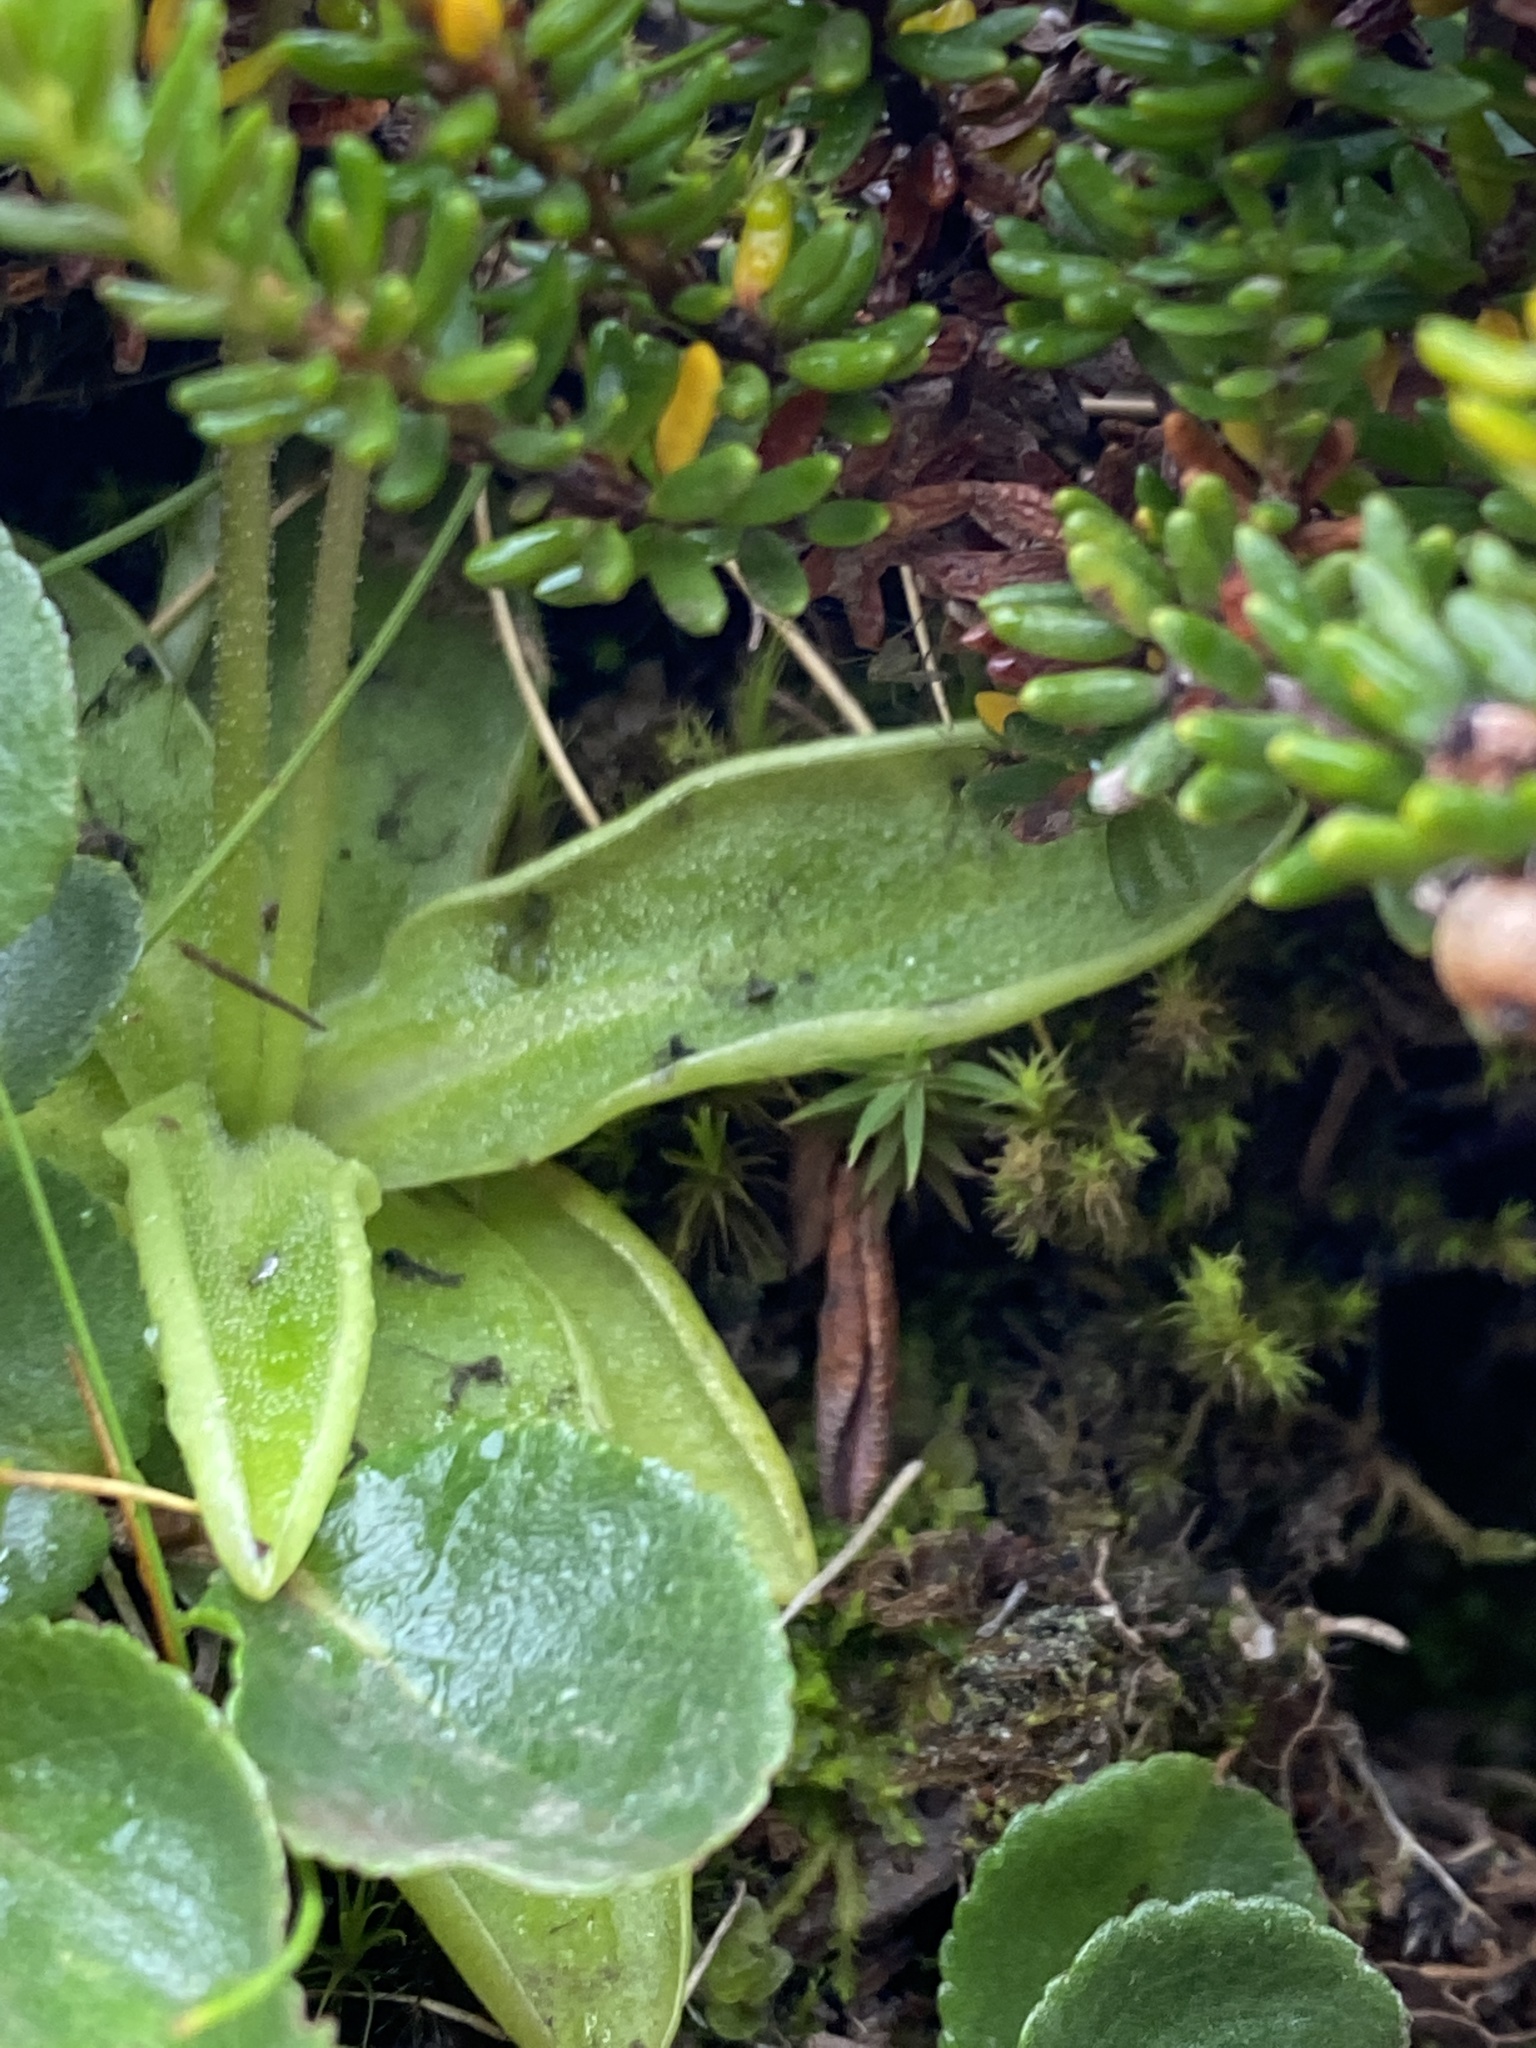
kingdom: Plantae
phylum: Tracheophyta
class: Magnoliopsida
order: Lamiales
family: Lentibulariaceae
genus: Pinguicula
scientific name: Pinguicula vulgaris
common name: Common butterwort
